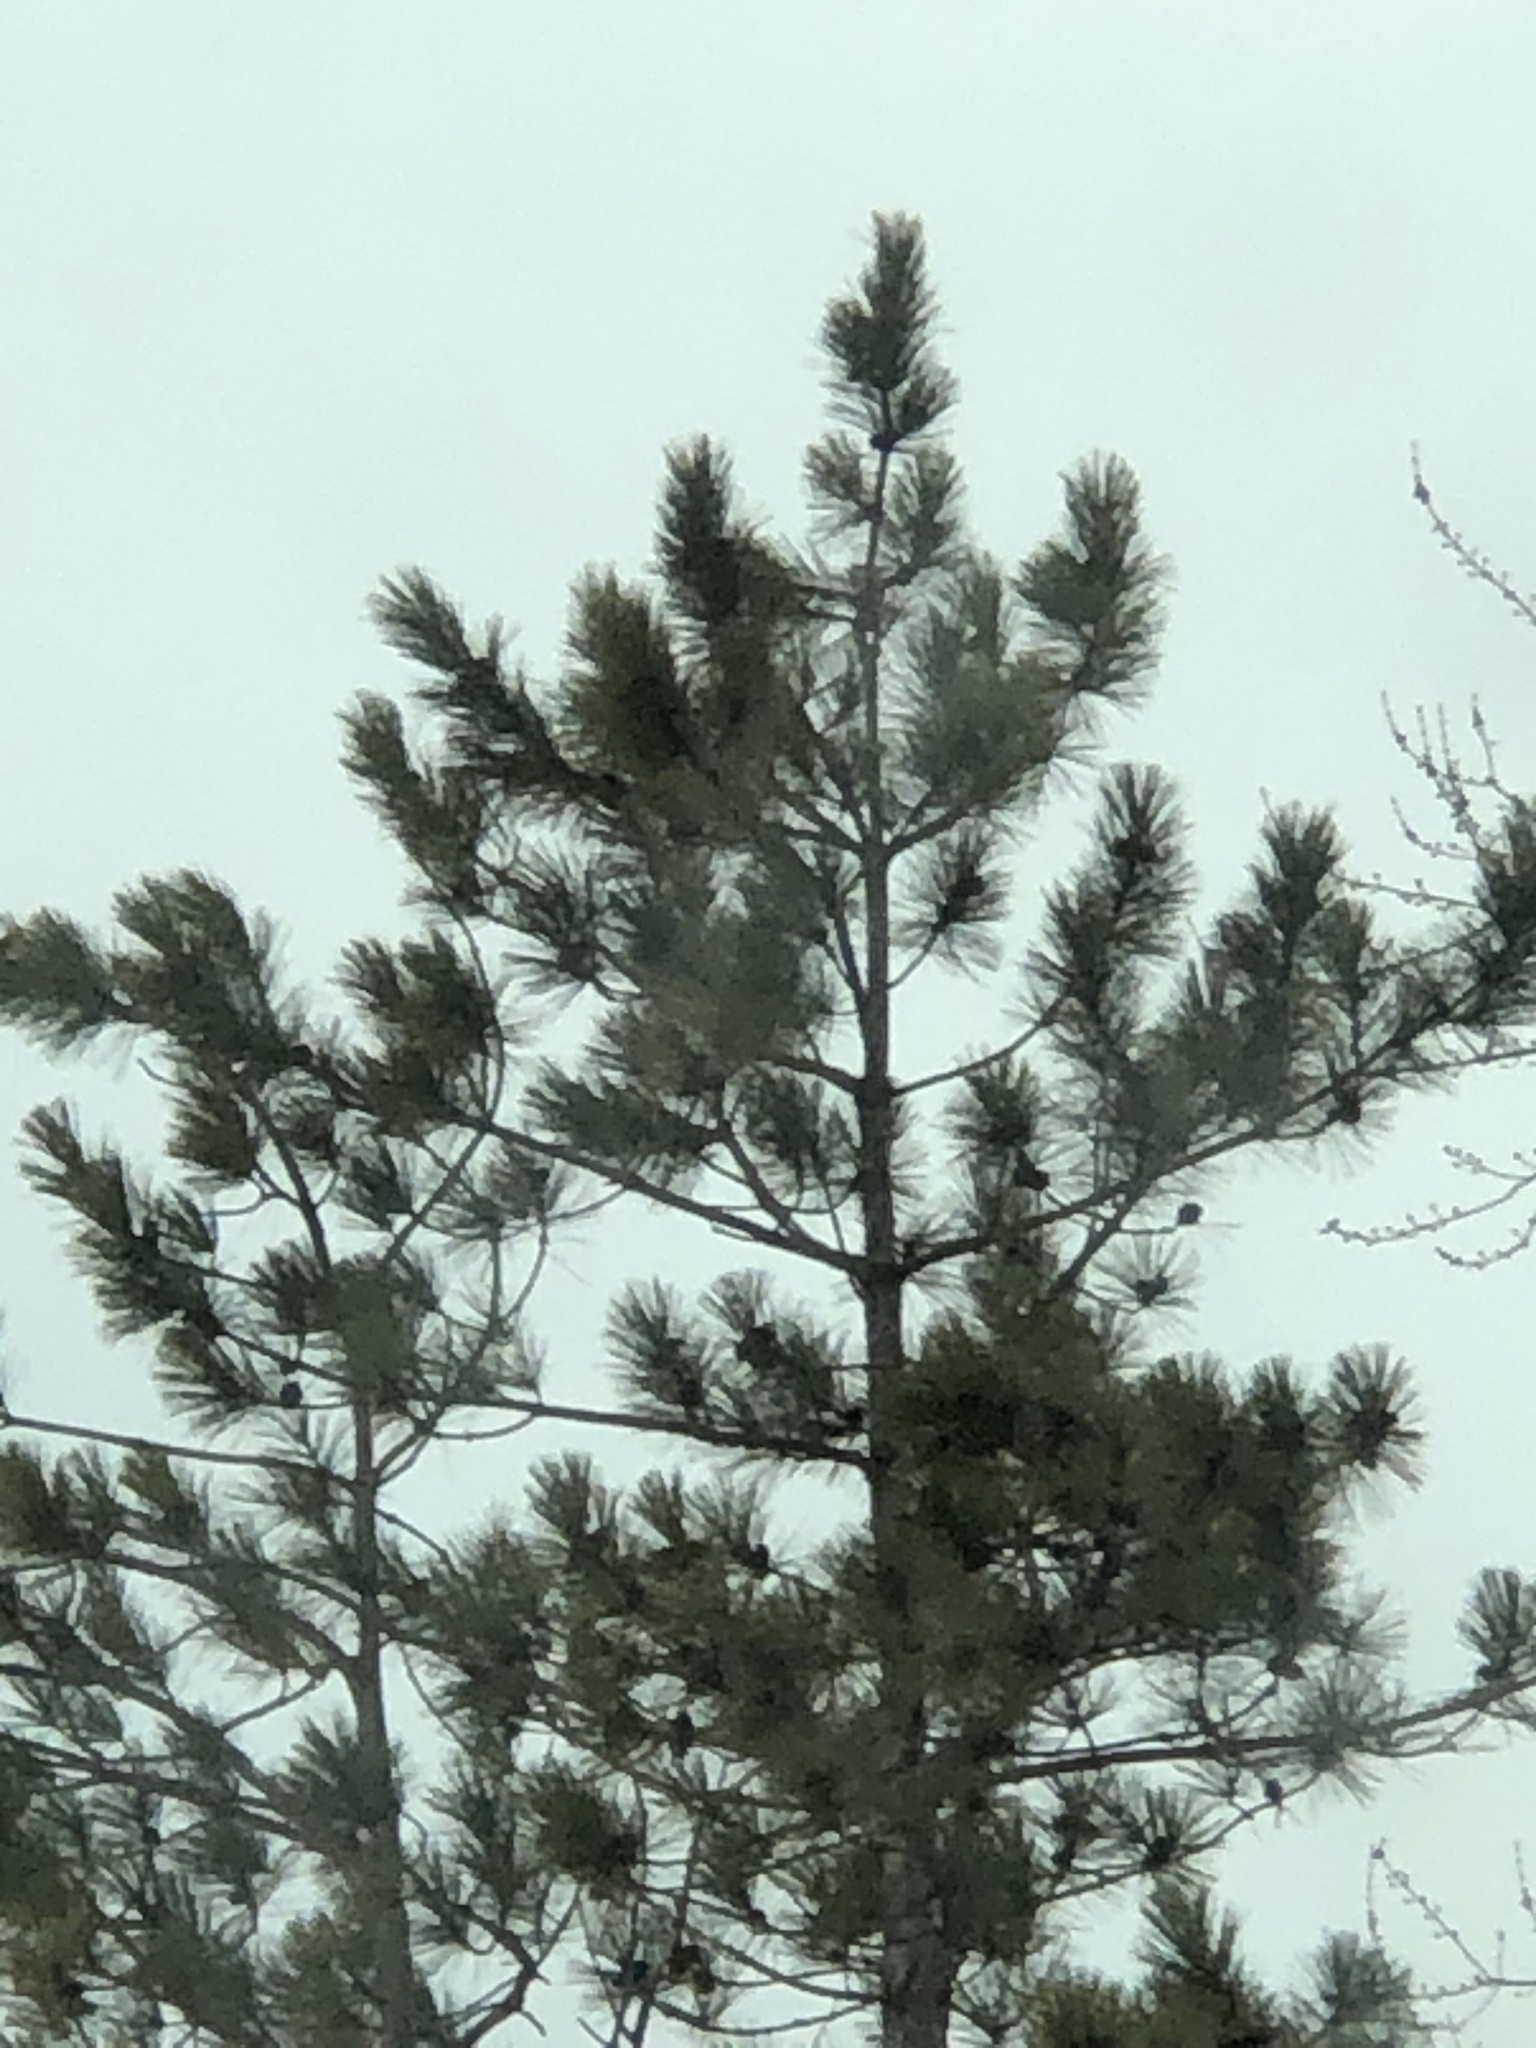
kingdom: Plantae
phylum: Tracheophyta
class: Pinopsida
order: Pinales
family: Pinaceae
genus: Pinus
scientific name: Pinus resinosa
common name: Norway pine
